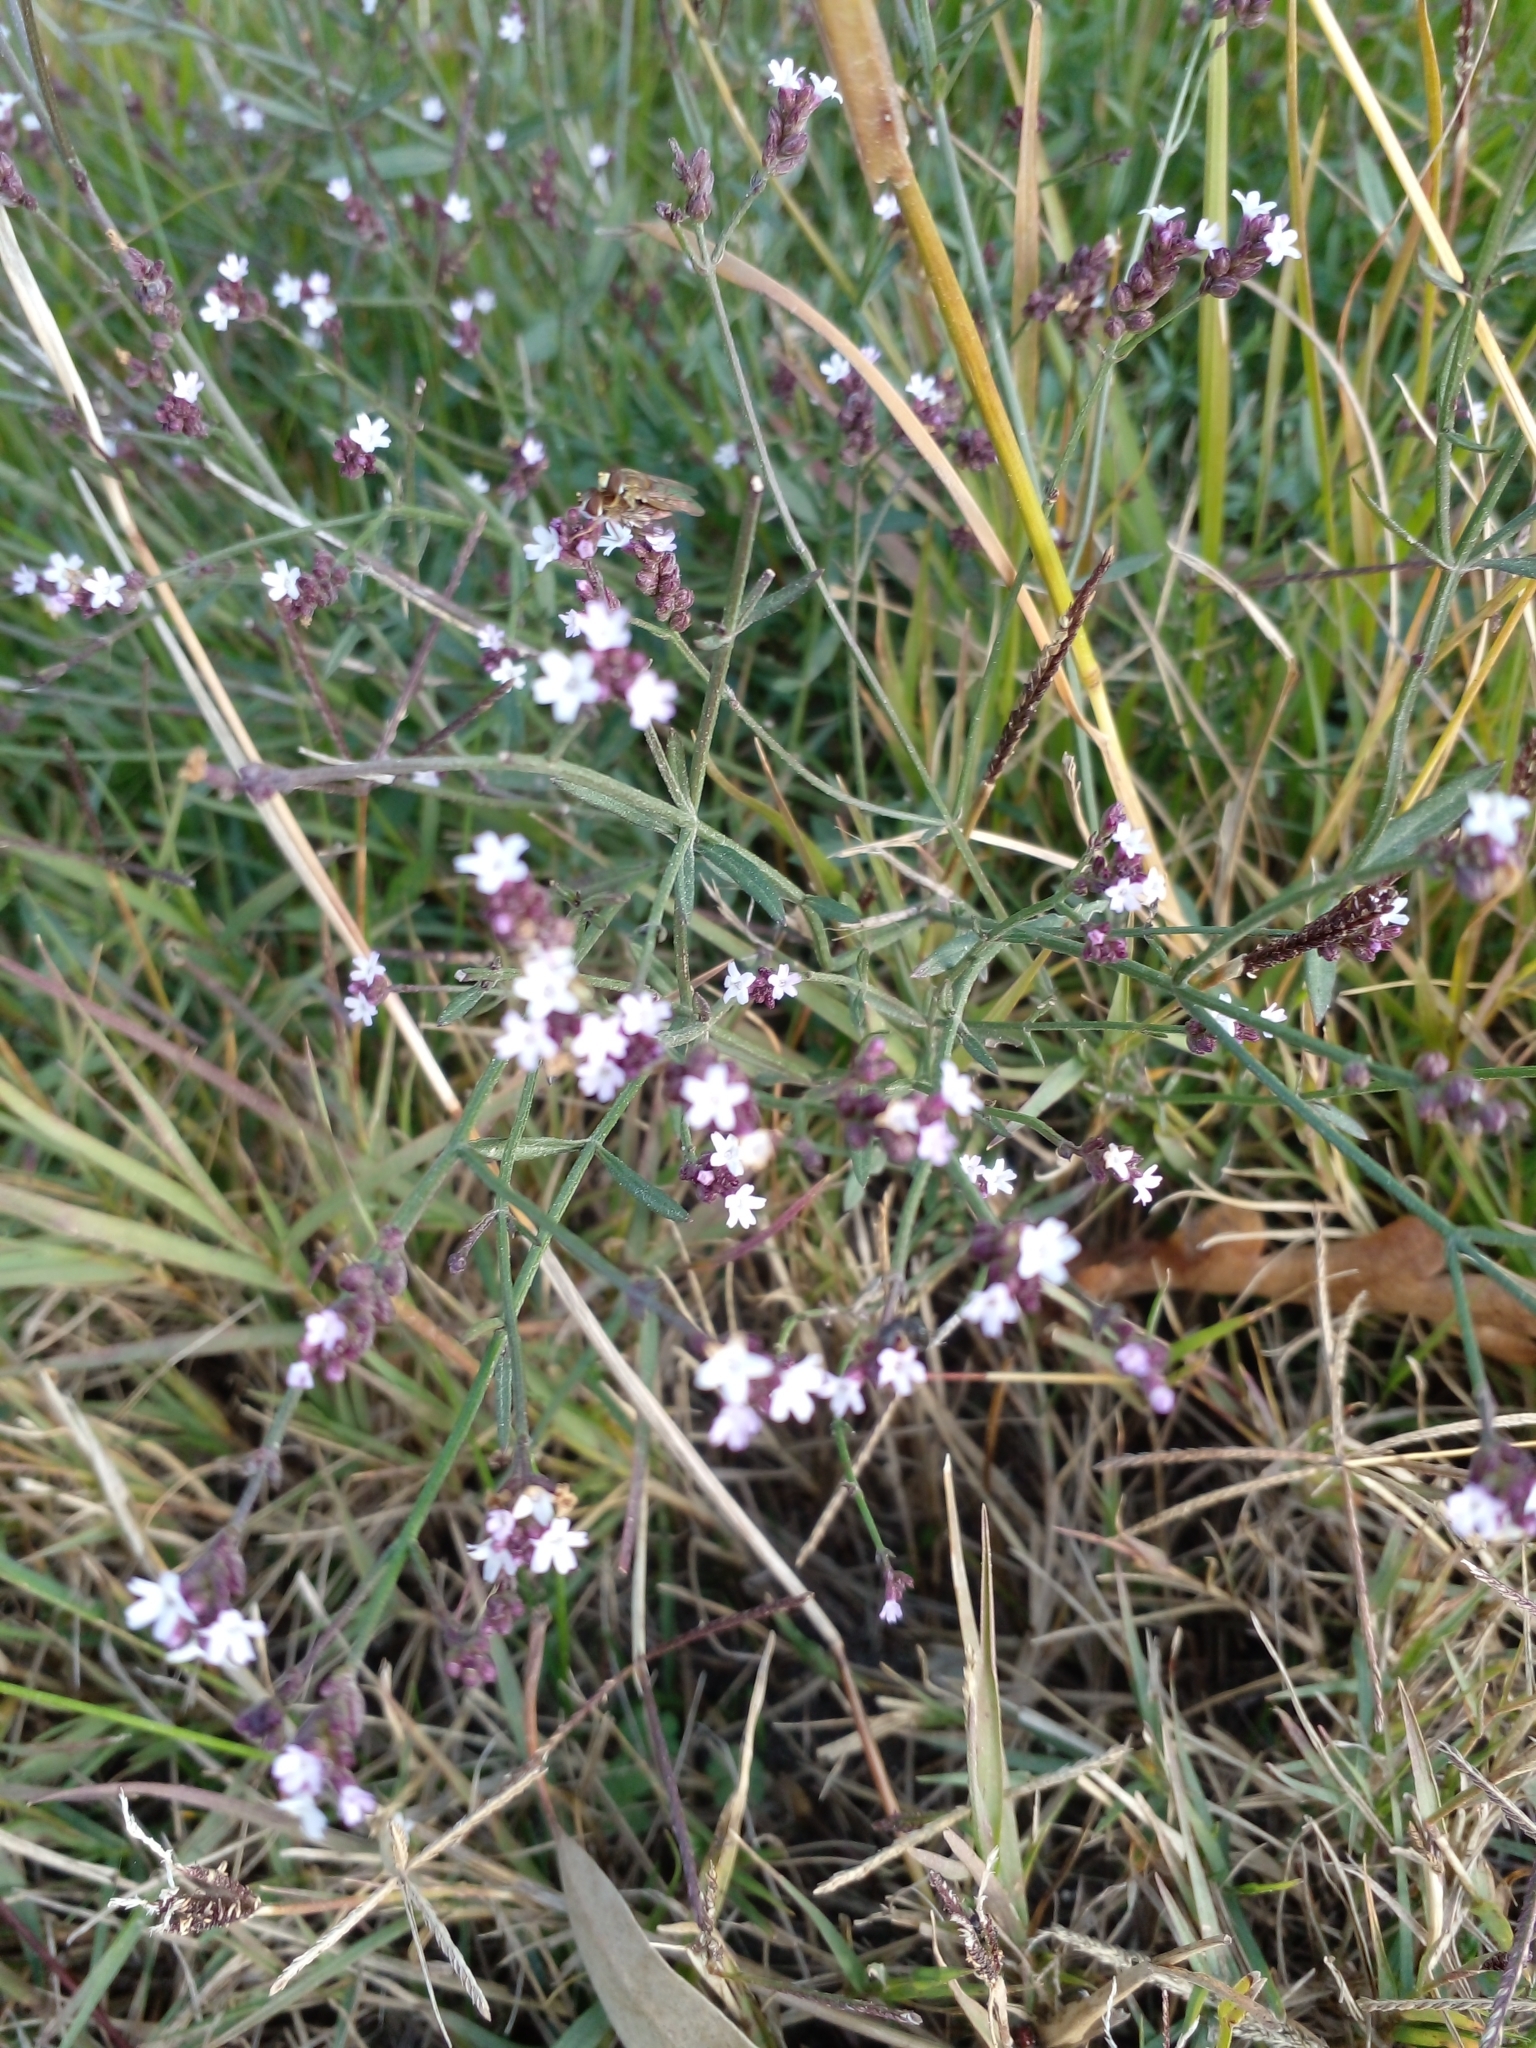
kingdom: Plantae
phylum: Tracheophyta
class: Magnoliopsida
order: Lamiales
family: Verbenaceae
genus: Verbena
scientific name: Verbena montevidensis
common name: Uruguayan vervain
